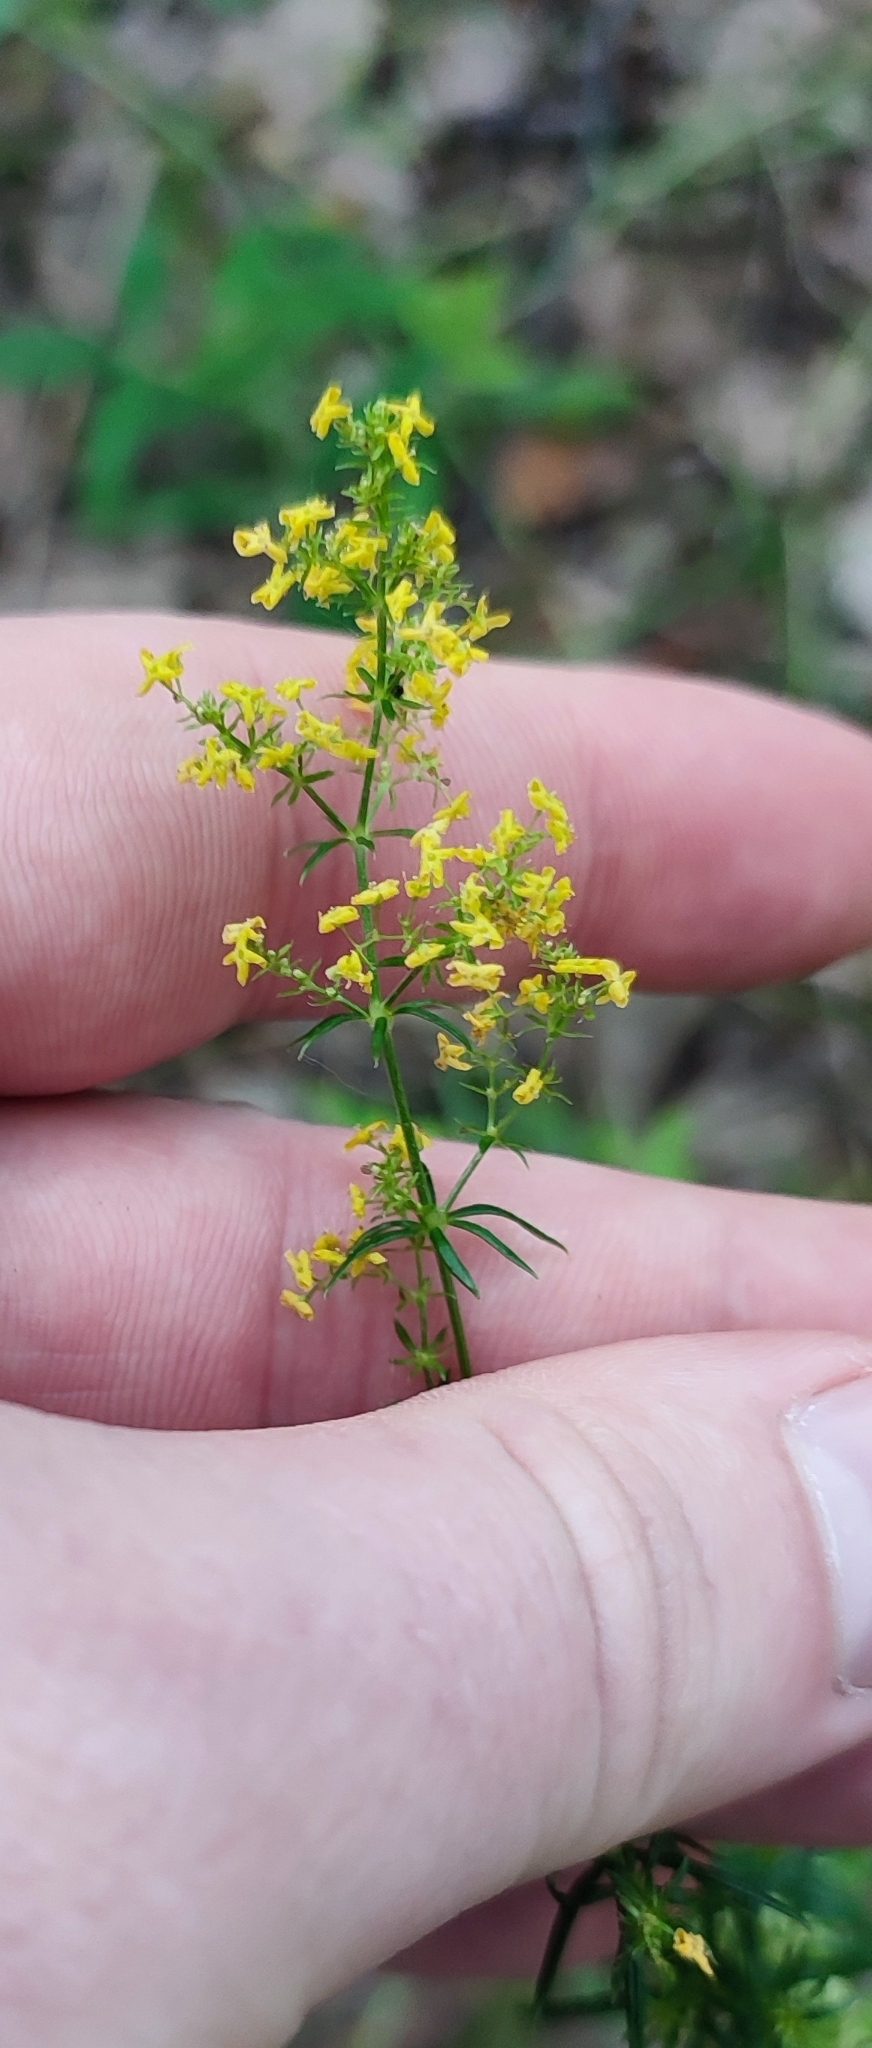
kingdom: Plantae
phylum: Tracheophyta
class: Magnoliopsida
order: Gentianales
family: Rubiaceae
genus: Galium
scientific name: Galium verum
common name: Lady's bedstraw
